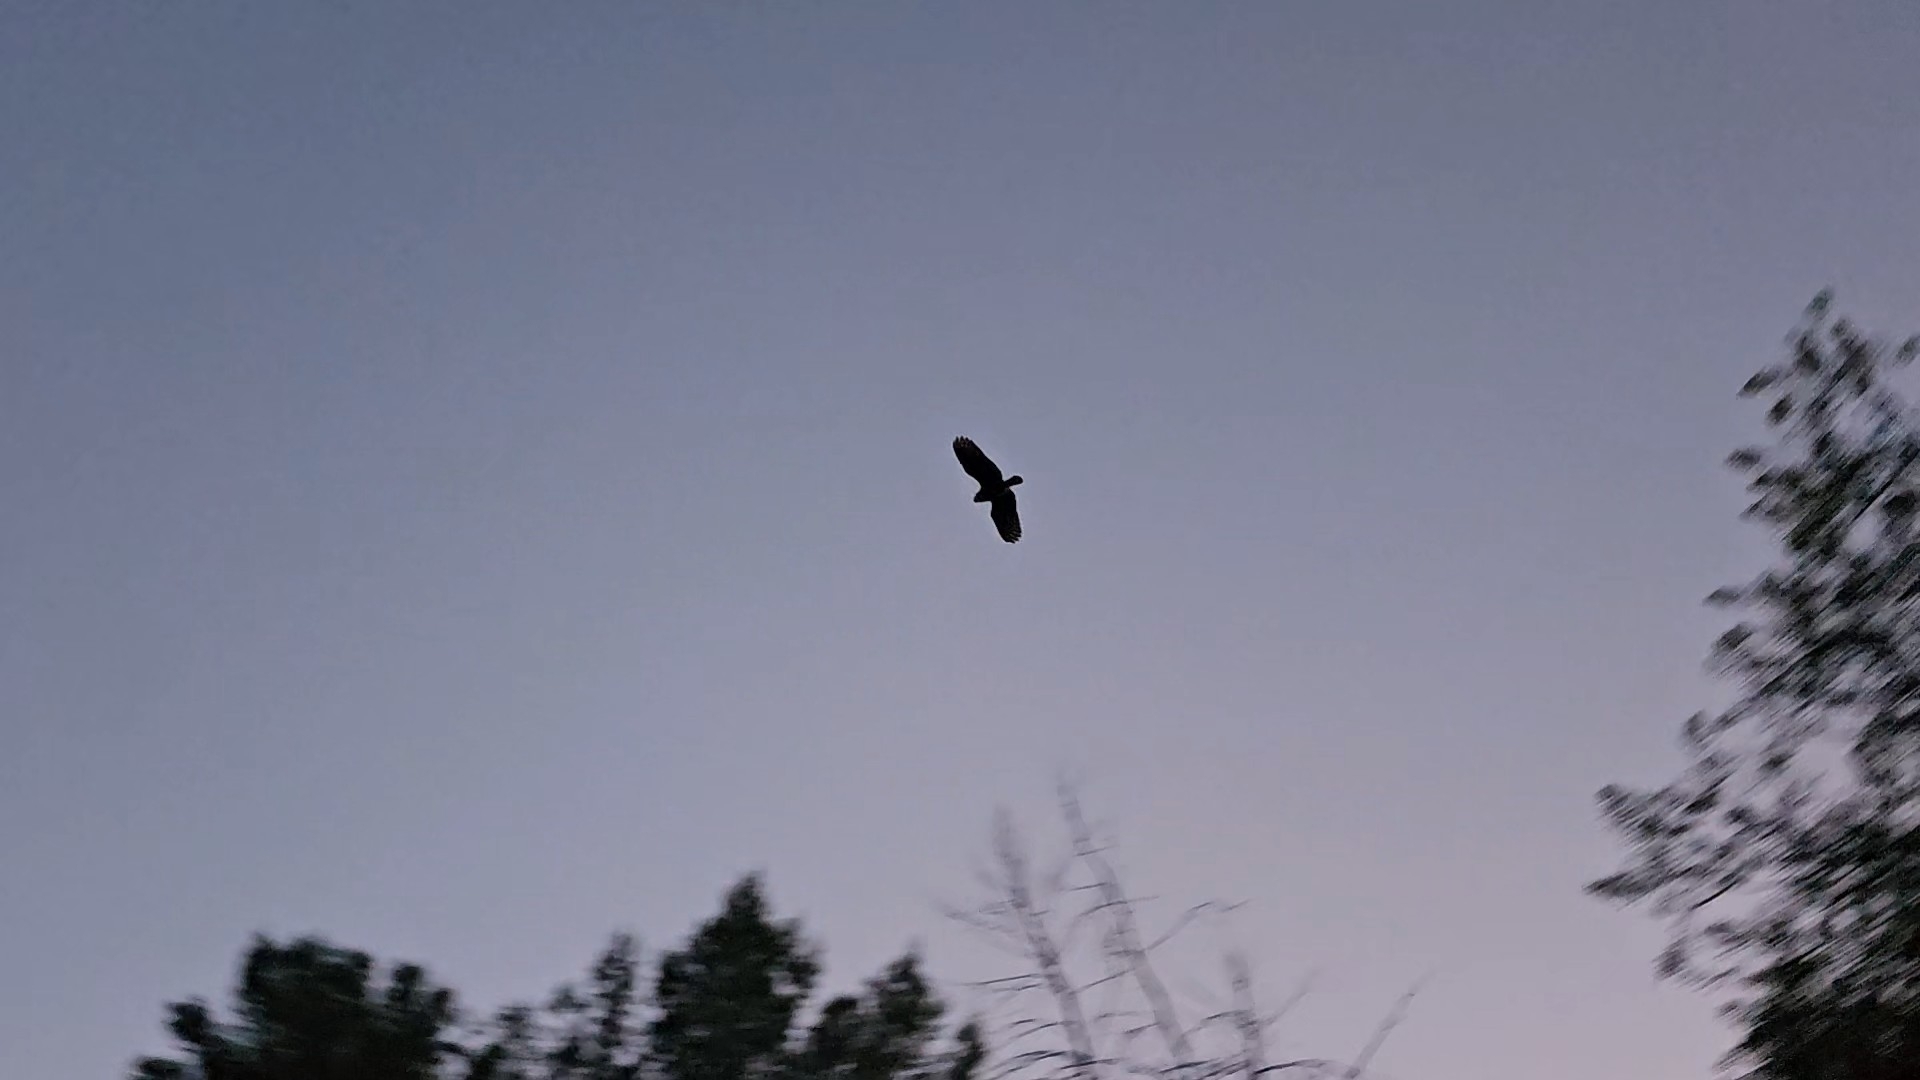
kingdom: Animalia
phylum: Chordata
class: Aves
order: Strigiformes
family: Strigidae
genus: Bubo
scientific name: Bubo virginianus
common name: Great horned owl
